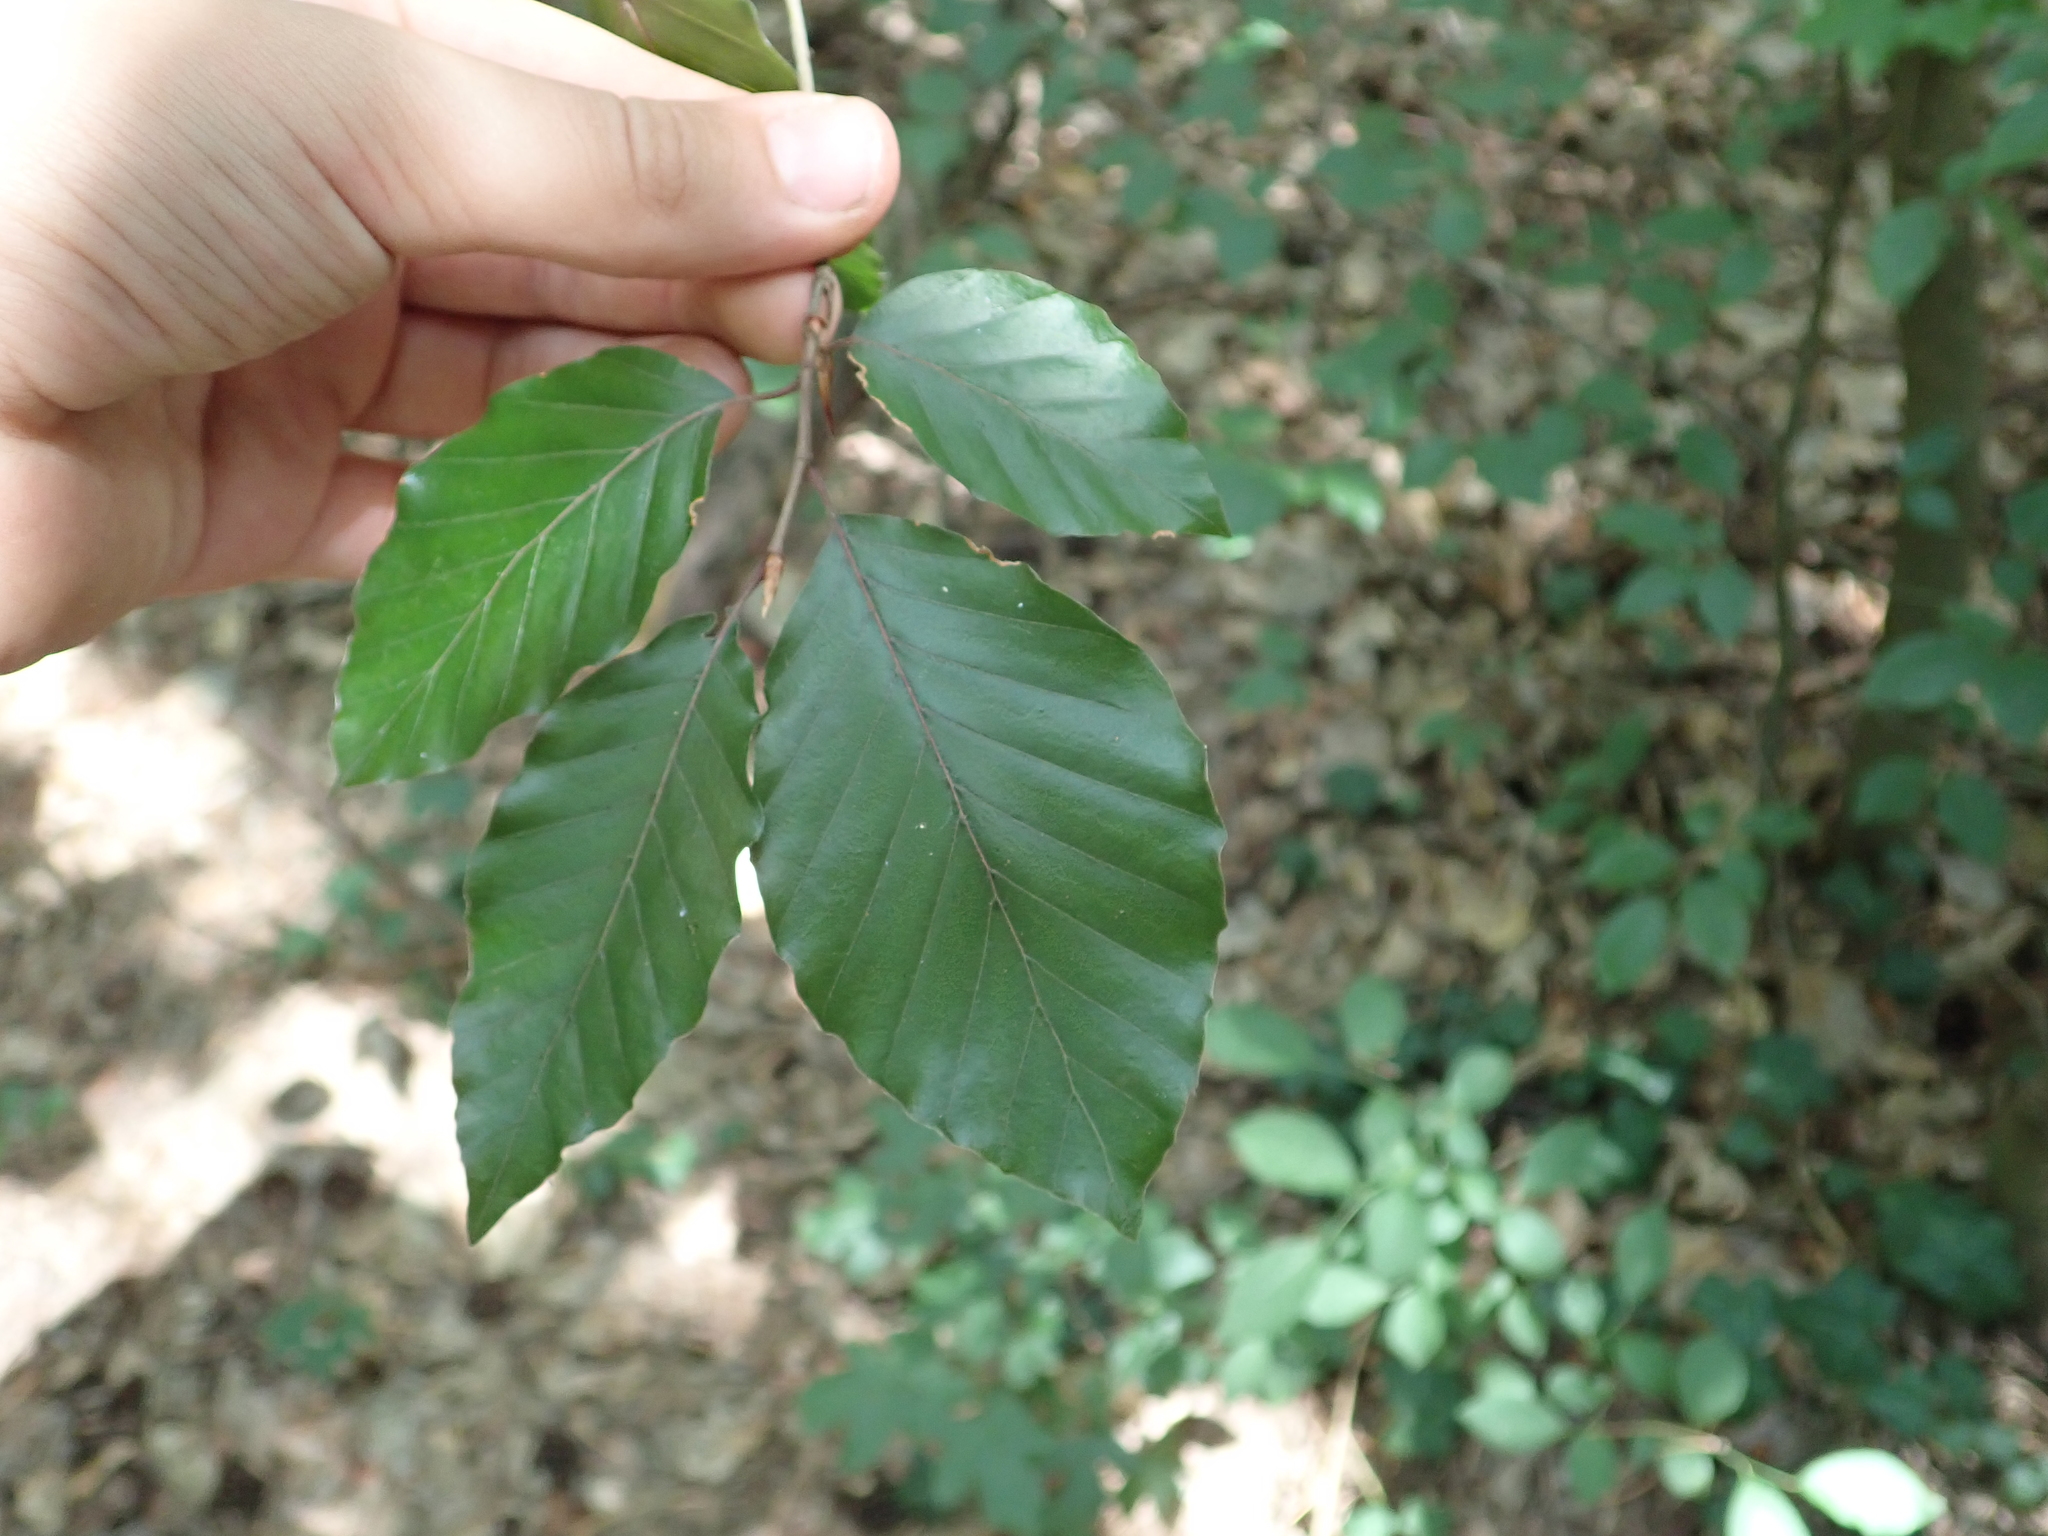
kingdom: Plantae
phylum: Tracheophyta
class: Magnoliopsida
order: Fagales
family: Fagaceae
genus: Fagus
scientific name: Fagus sylvatica
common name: Beech
